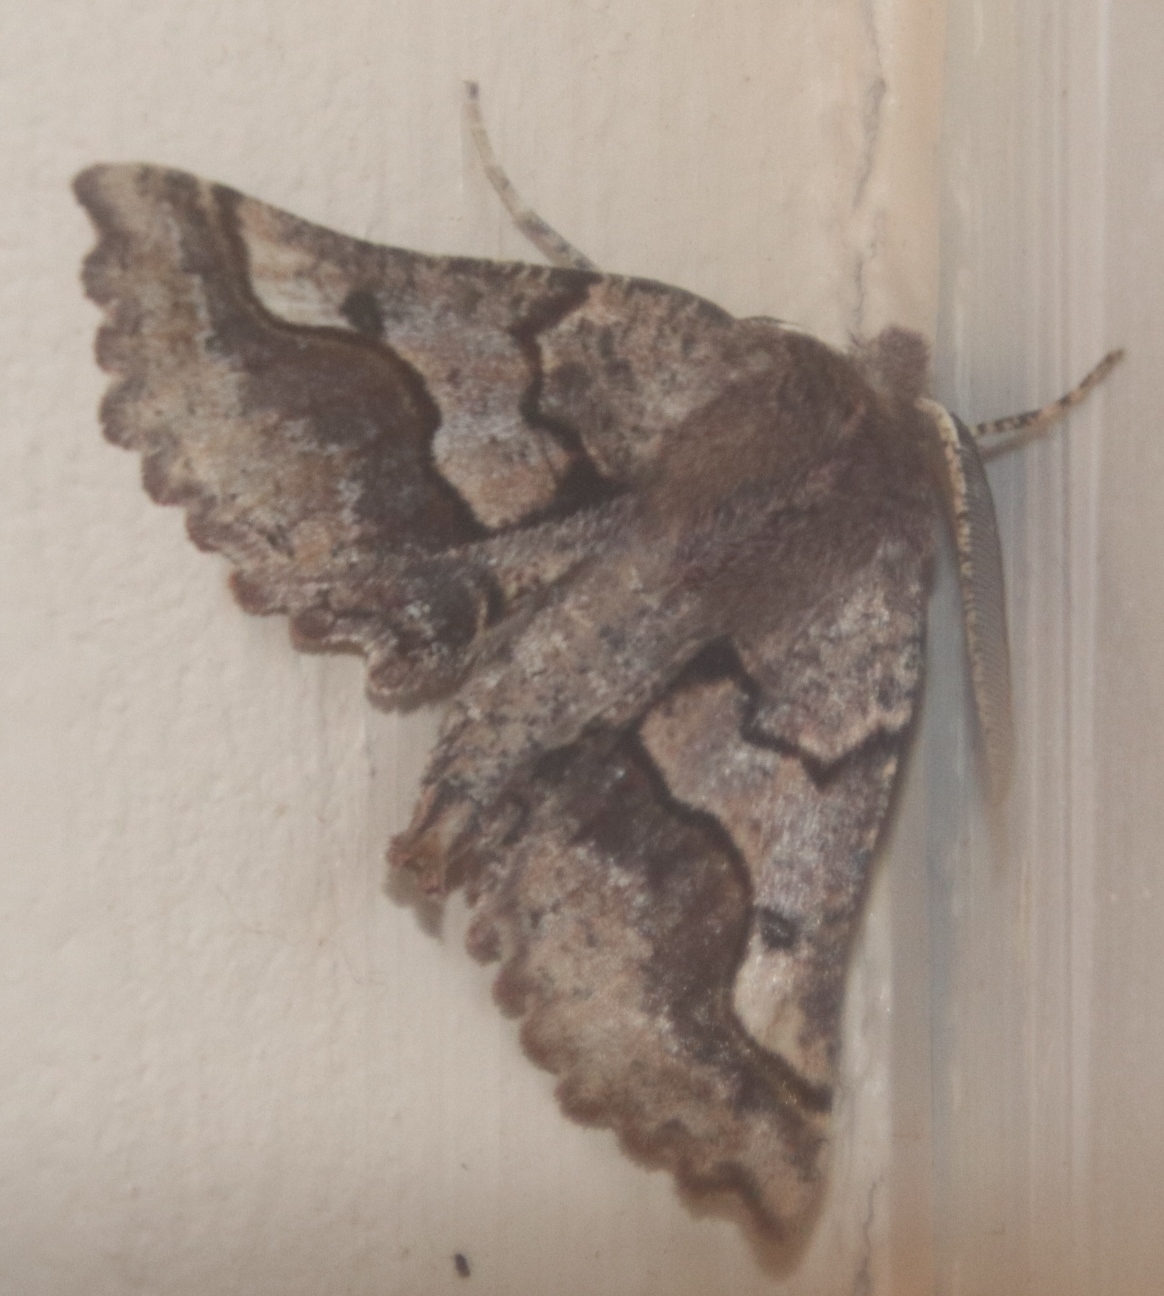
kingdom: Animalia
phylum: Arthropoda
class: Insecta
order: Lepidoptera
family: Geometridae
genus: Drepanogynis
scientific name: Drepanogynis sinuata
